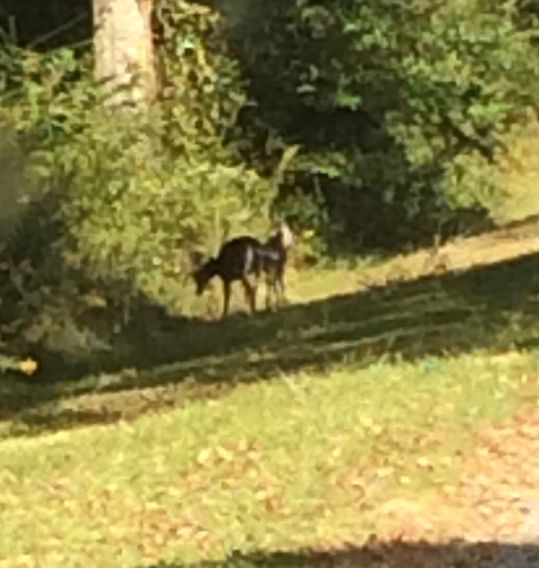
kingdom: Animalia
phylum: Chordata
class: Mammalia
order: Artiodactyla
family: Cervidae
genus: Odocoileus
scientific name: Odocoileus virginianus
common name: White-tailed deer
